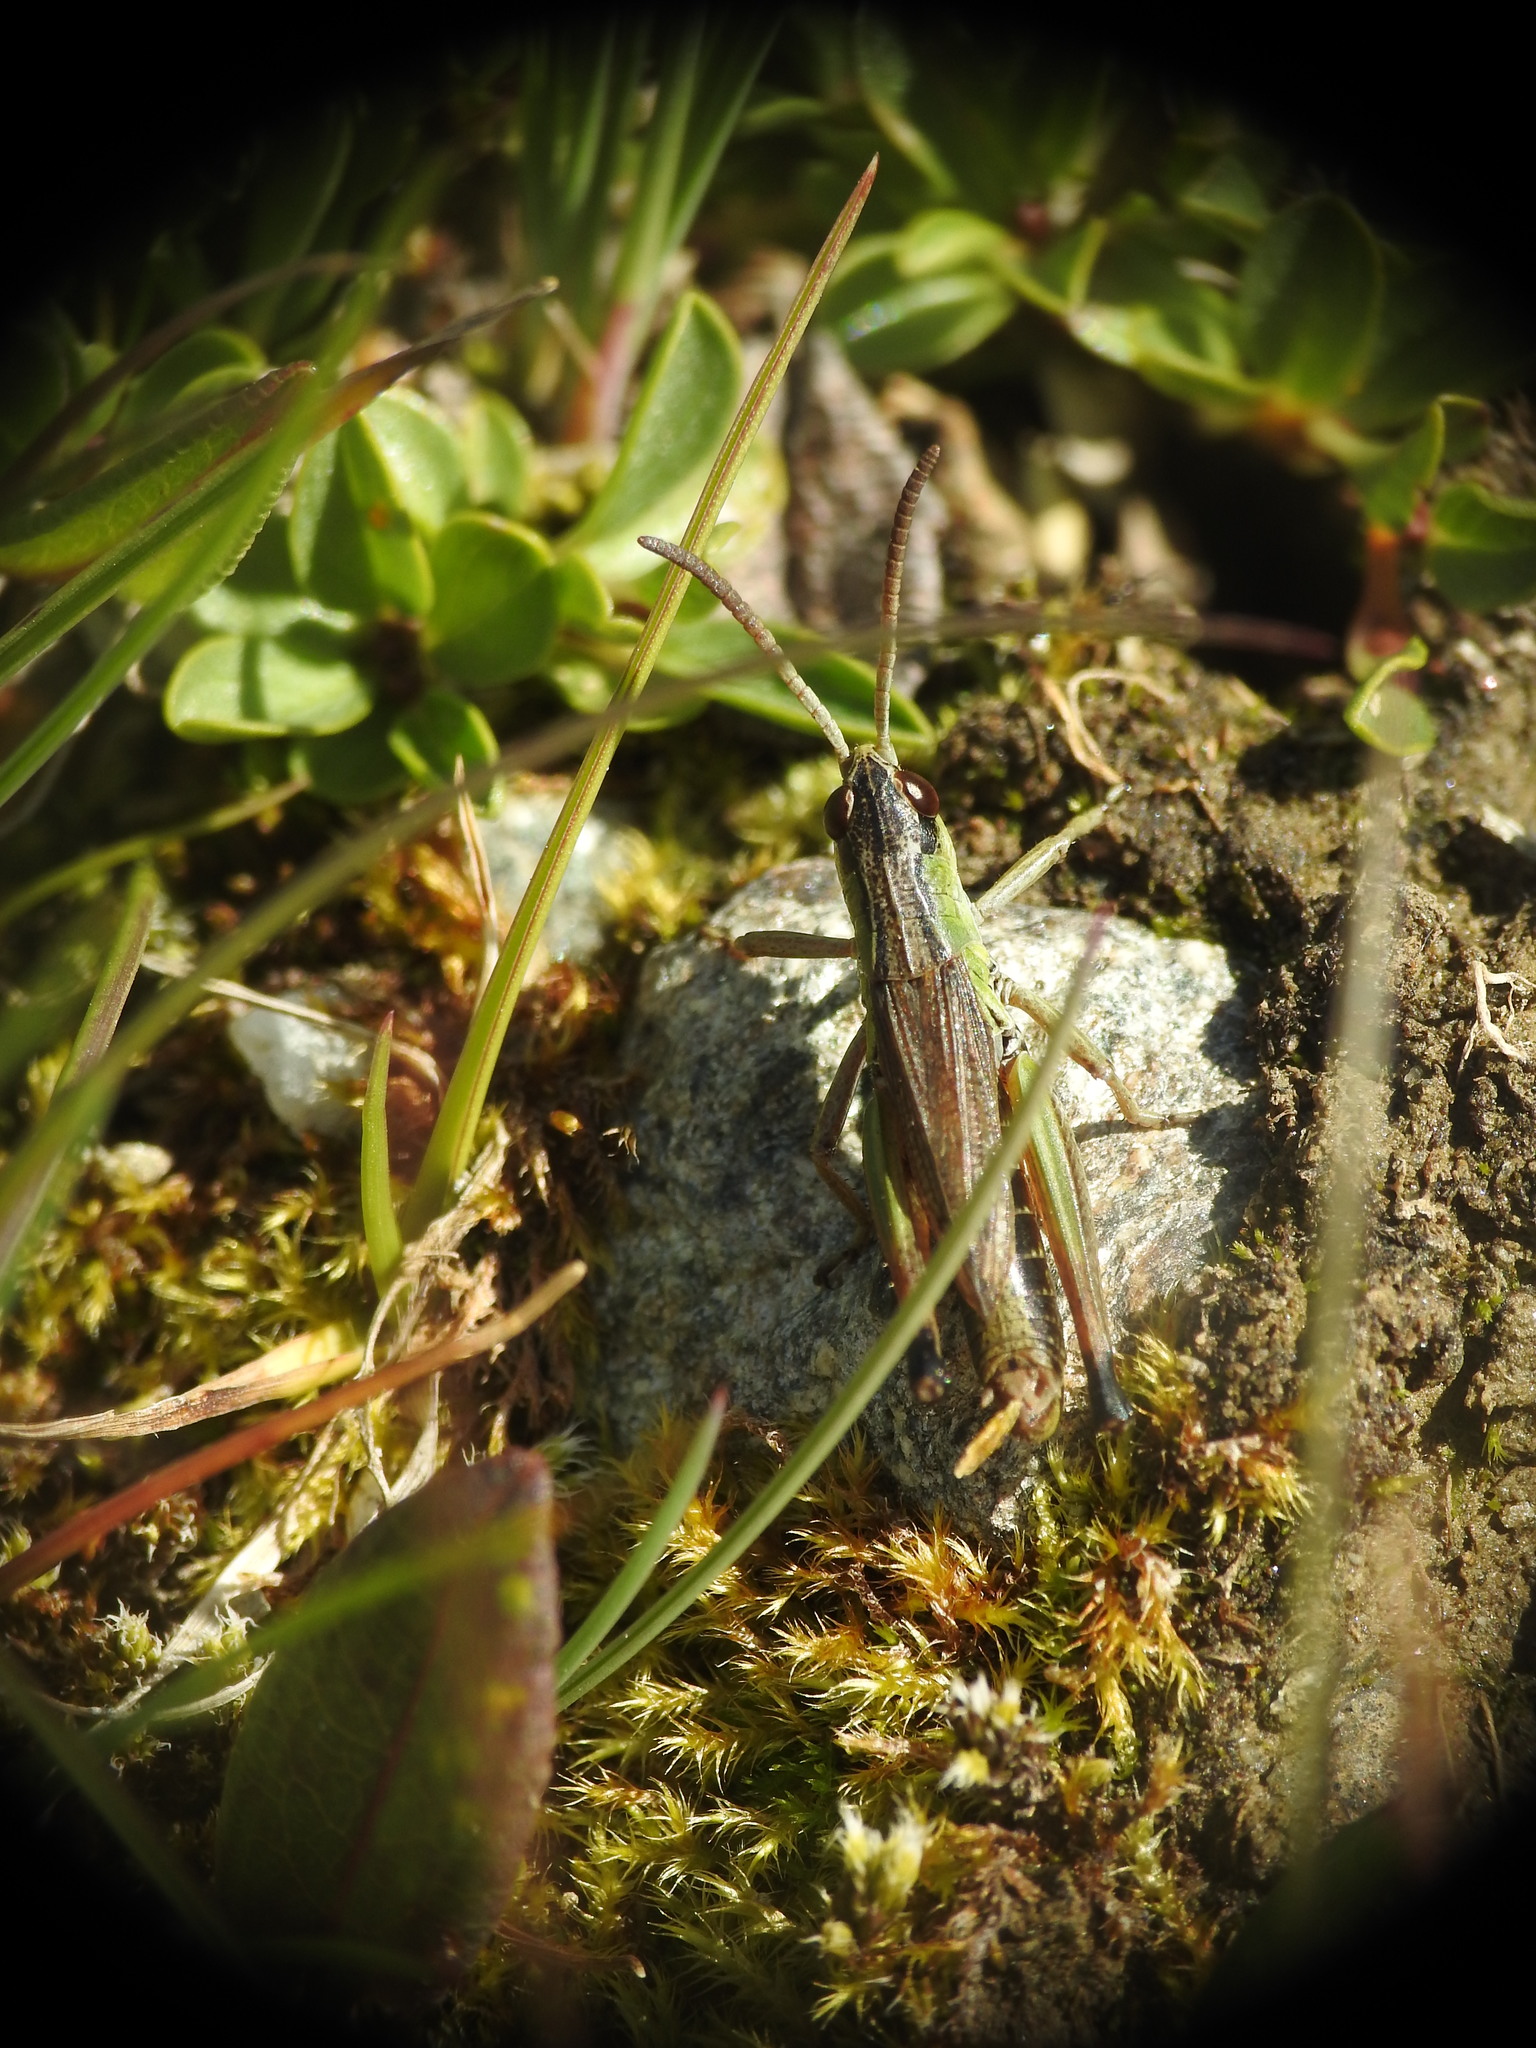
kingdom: Animalia
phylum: Arthropoda
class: Insecta
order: Orthoptera
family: Acrididae
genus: Pseudochorthippus
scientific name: Pseudochorthippus parallelus
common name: Meadow grasshopper
